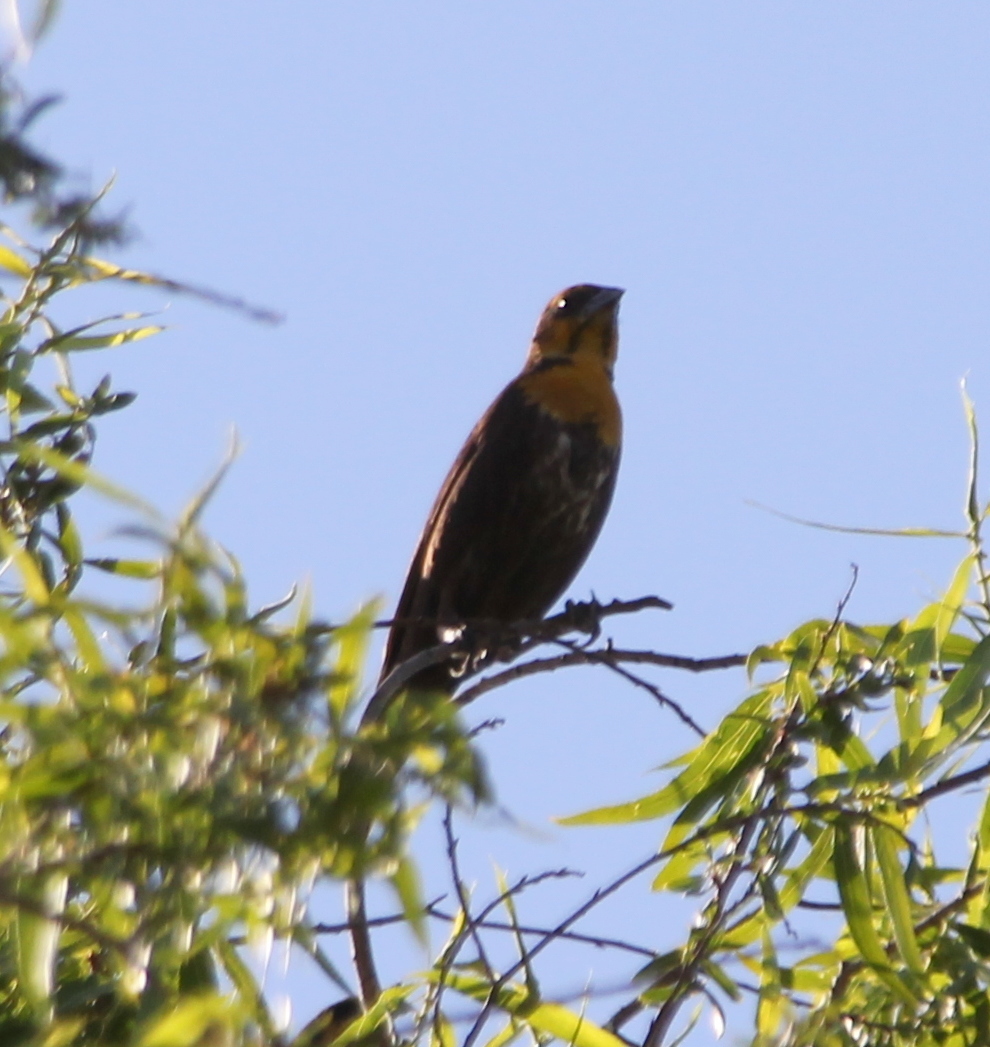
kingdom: Animalia
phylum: Chordata
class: Aves
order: Passeriformes
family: Icteridae
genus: Xanthocephalus
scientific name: Xanthocephalus xanthocephalus
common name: Yellow-headed blackbird
